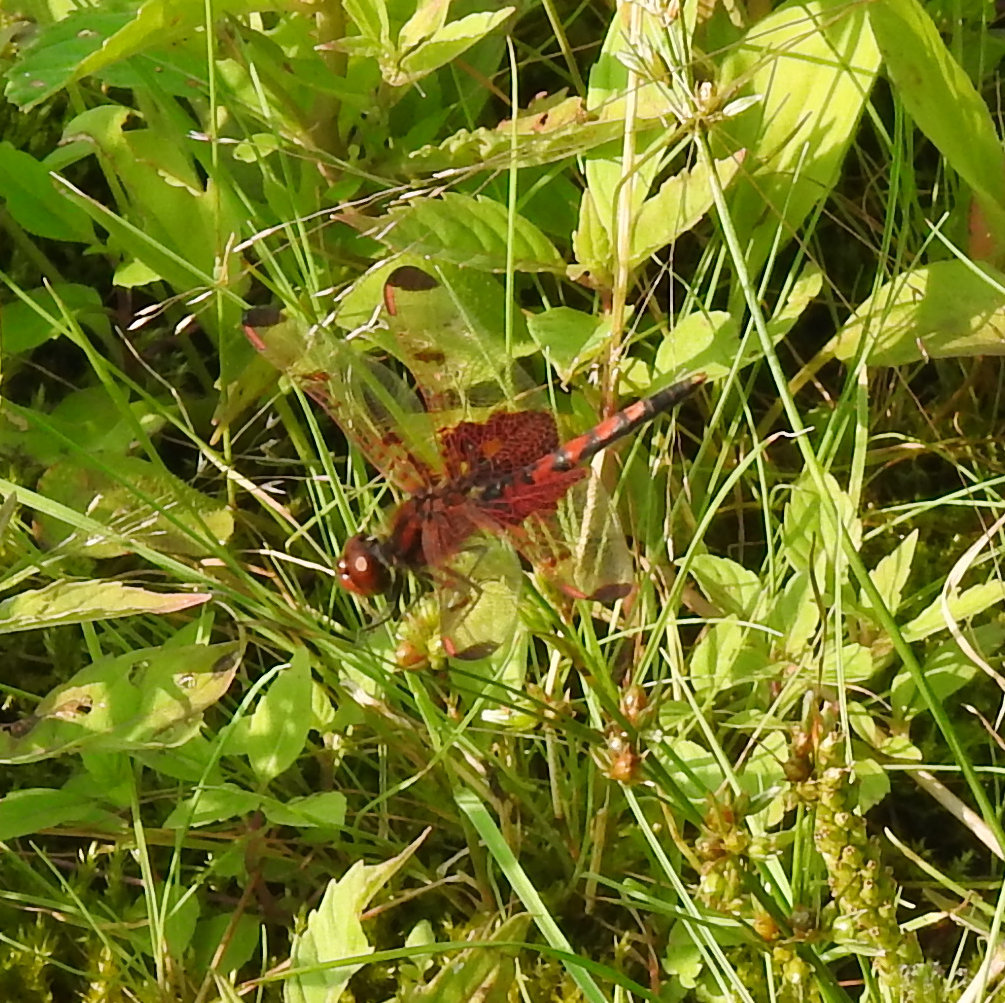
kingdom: Animalia
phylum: Arthropoda
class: Insecta
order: Odonata
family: Libellulidae
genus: Celithemis
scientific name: Celithemis elisa
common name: Calico pennant
